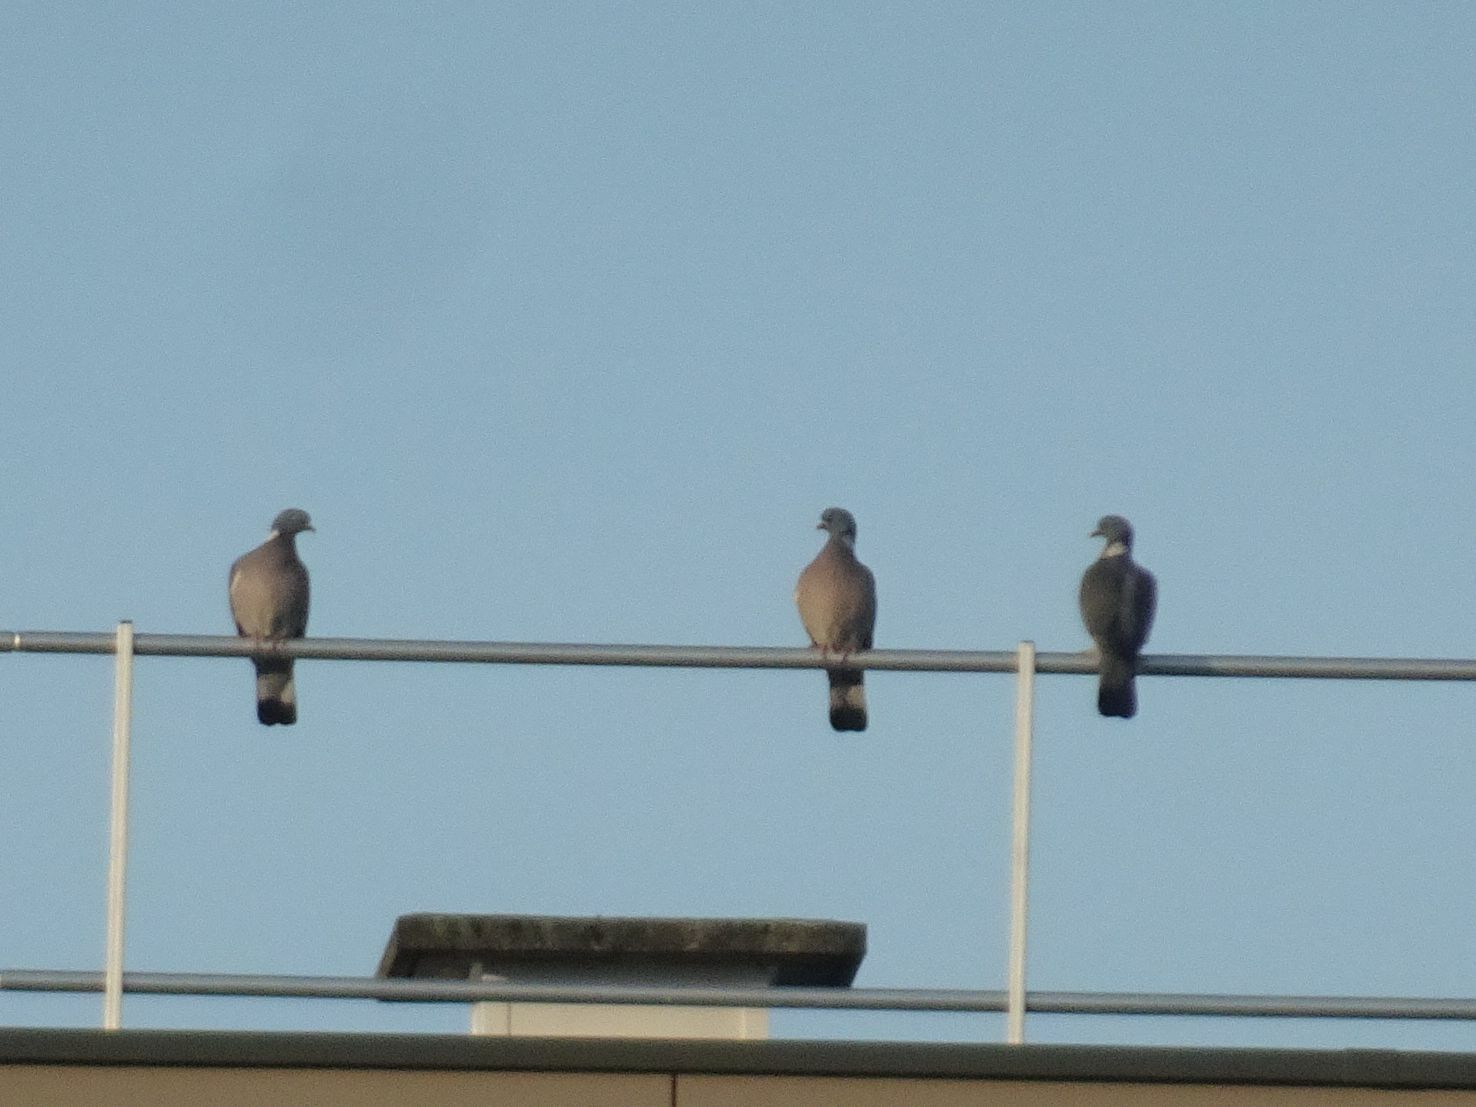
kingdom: Animalia
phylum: Chordata
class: Aves
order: Columbiformes
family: Columbidae
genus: Columba
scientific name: Columba palumbus
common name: Common wood pigeon
